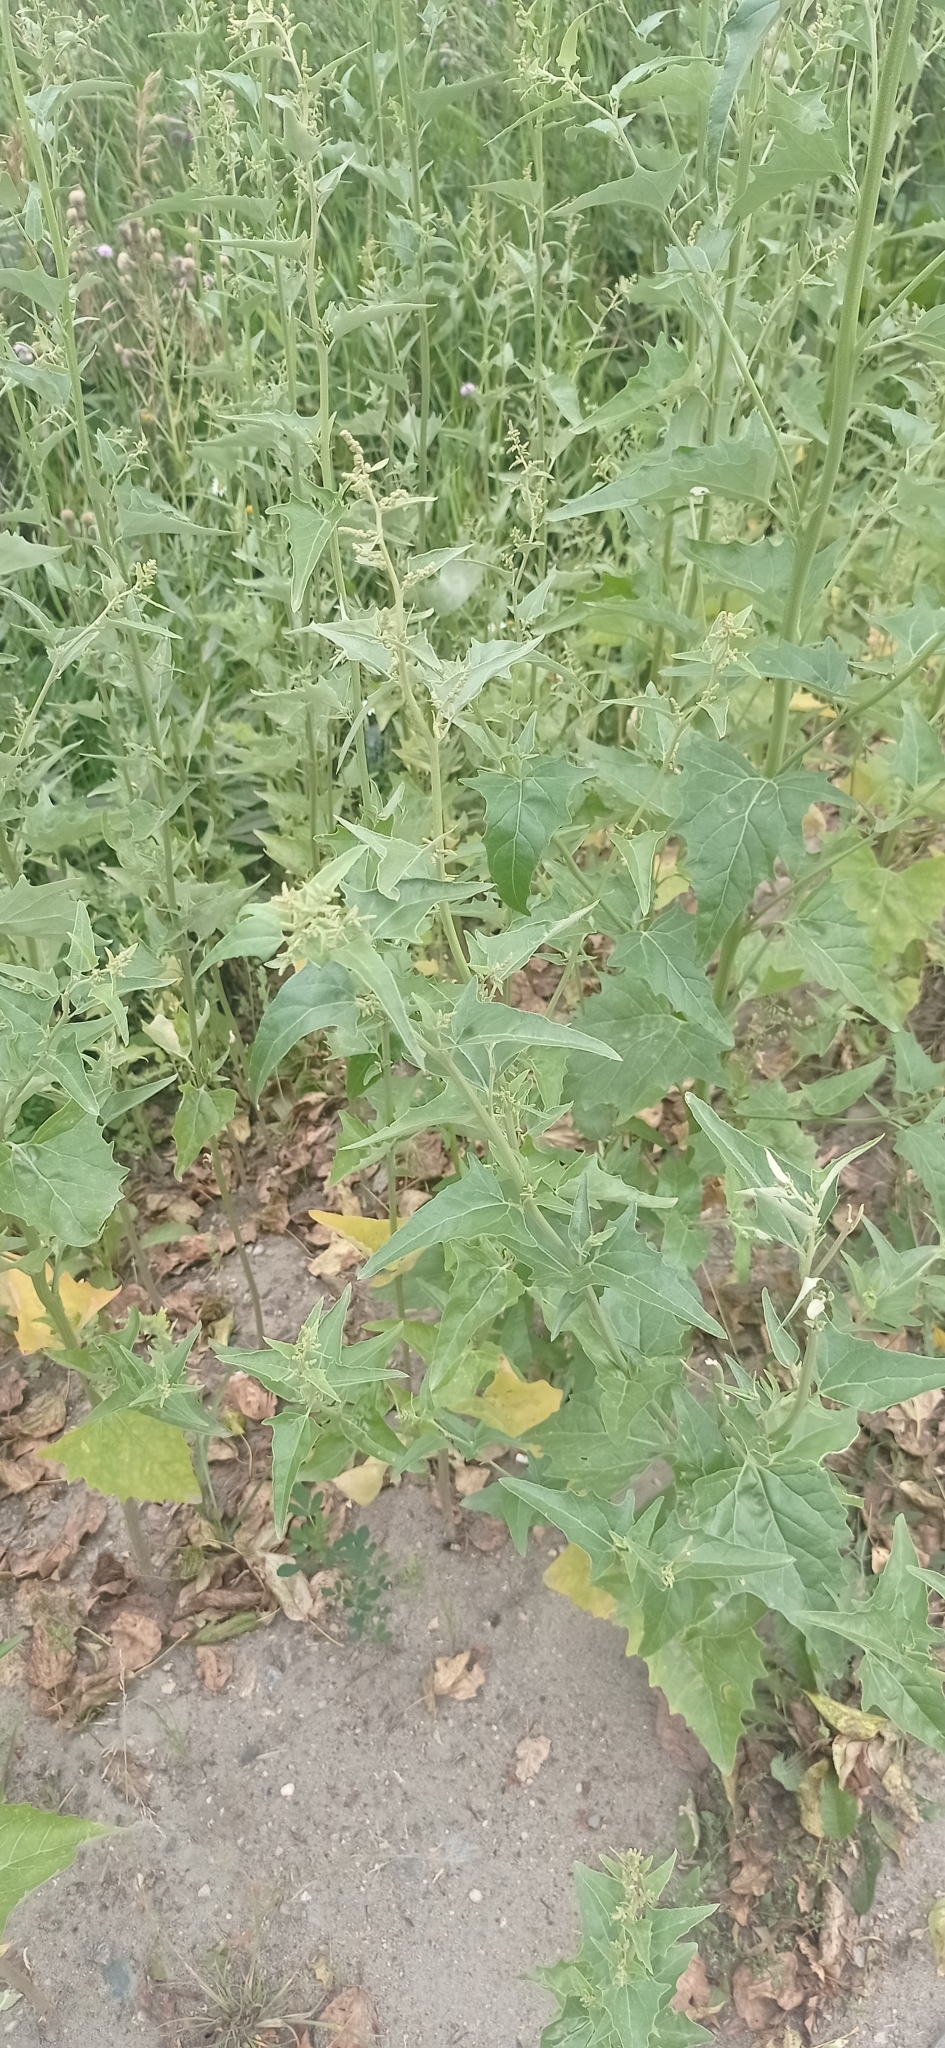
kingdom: Plantae
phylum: Tracheophyta
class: Magnoliopsida
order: Caryophyllales
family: Amaranthaceae
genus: Atriplex
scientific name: Atriplex sagittata
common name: Purple orache
